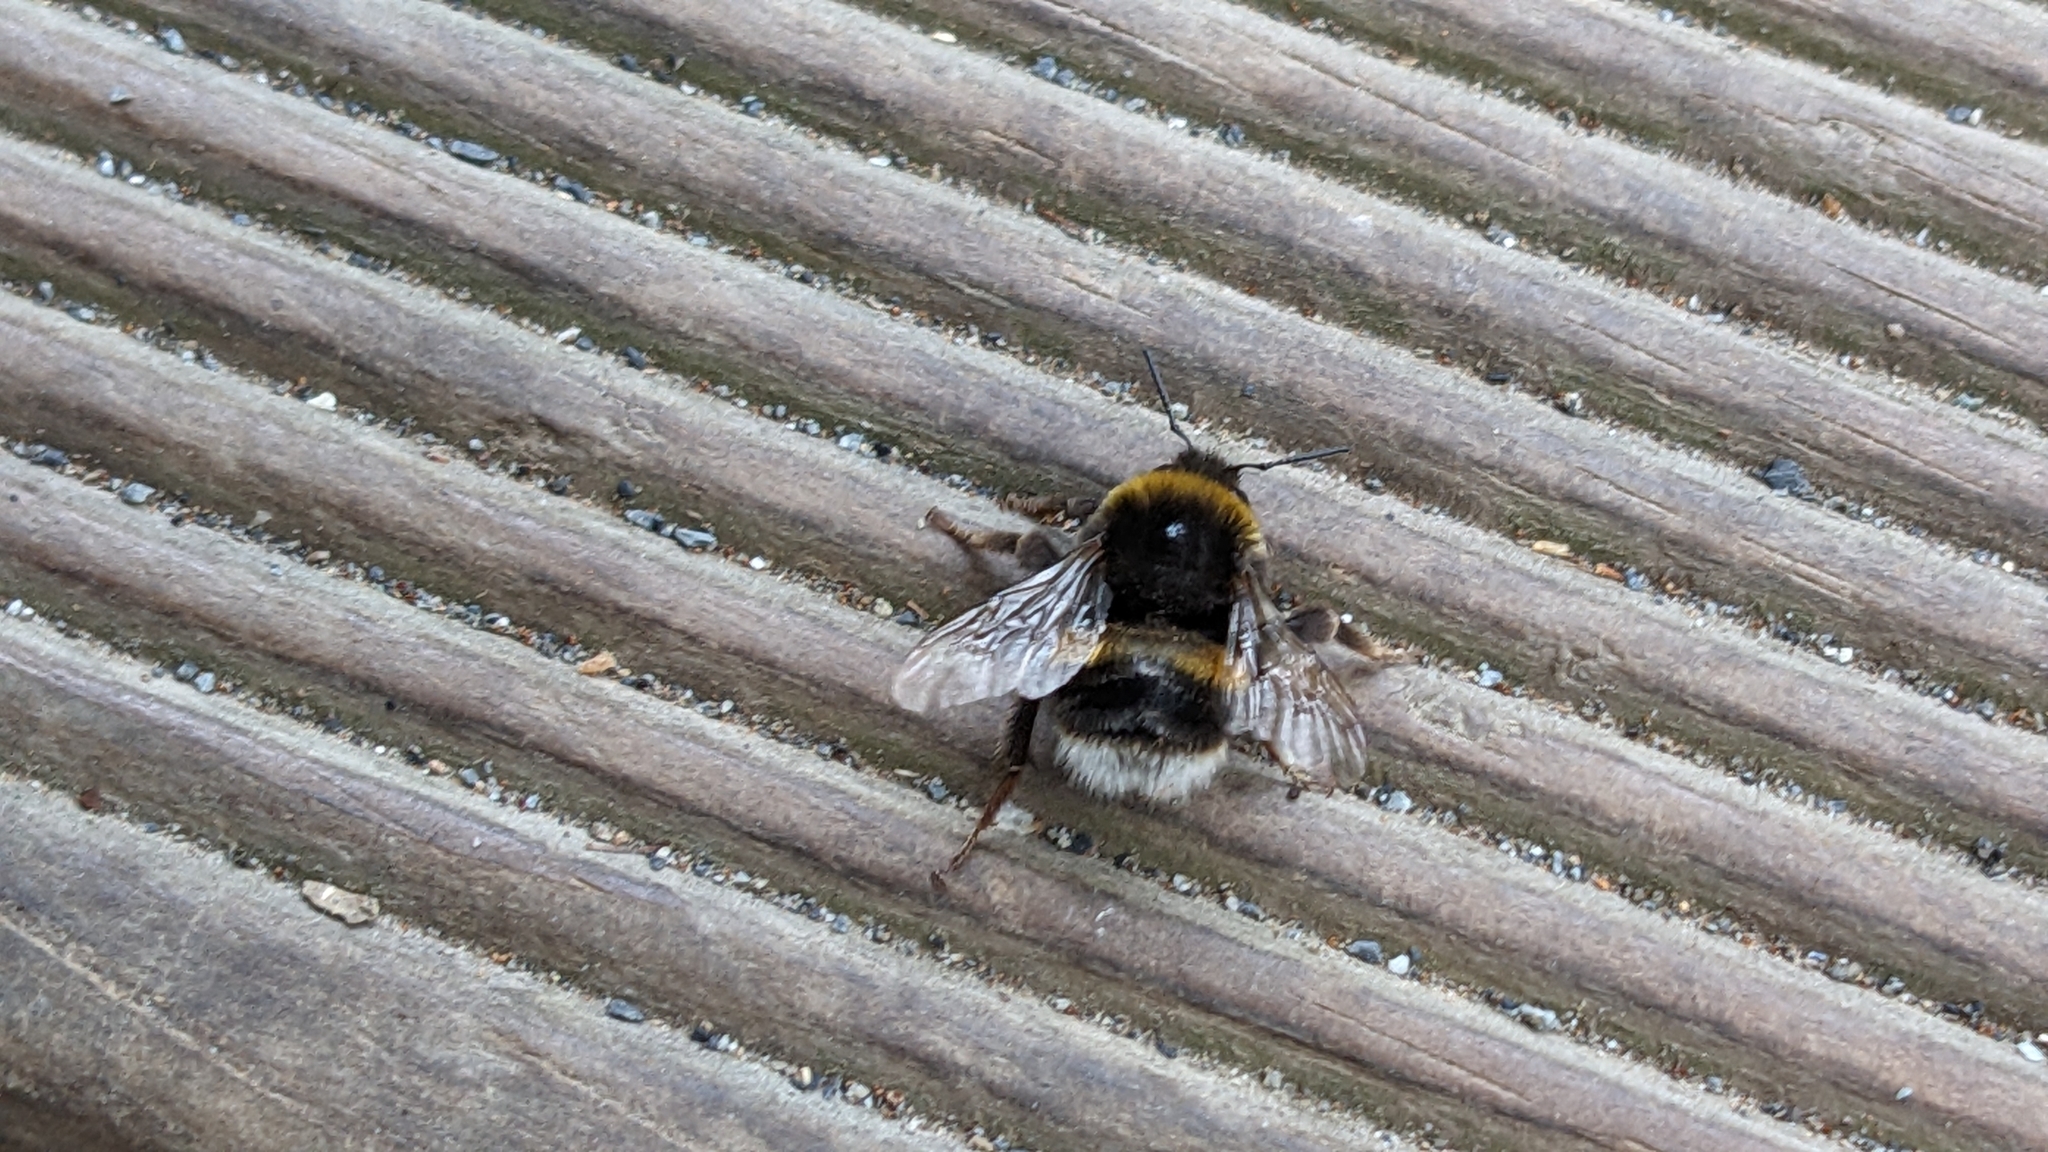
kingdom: Animalia
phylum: Arthropoda
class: Insecta
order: Hymenoptera
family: Apidae
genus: Bombus
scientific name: Bombus terrestris
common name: Buff-tailed bumblebee
